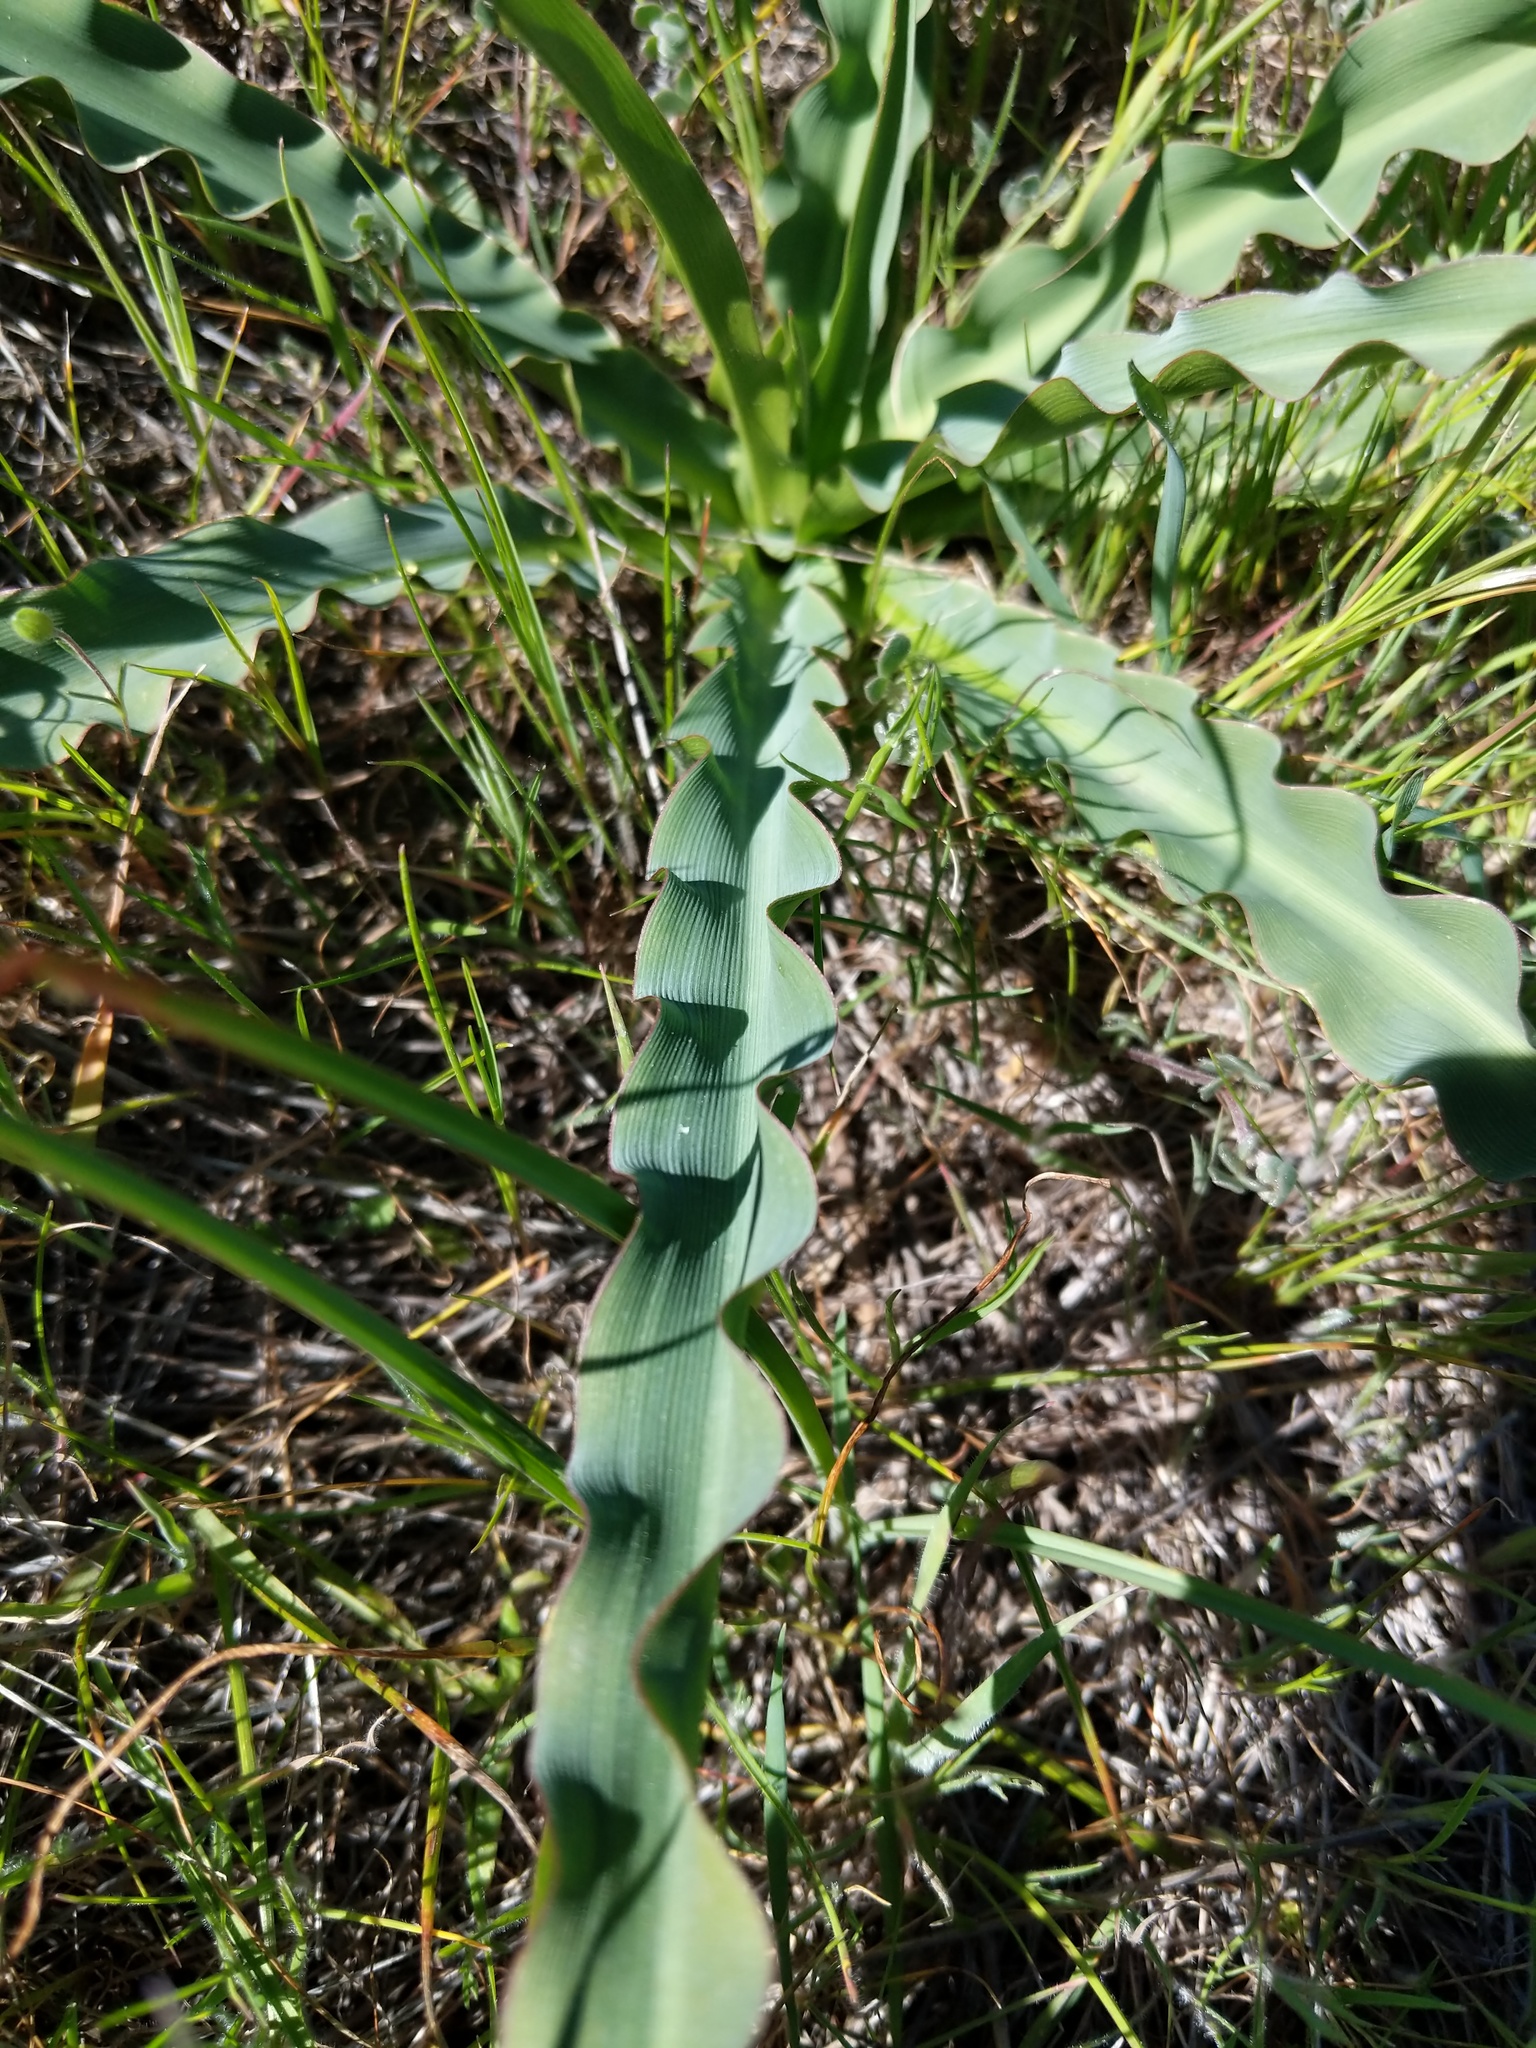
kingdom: Plantae
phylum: Tracheophyta
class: Liliopsida
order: Asparagales
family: Asparagaceae
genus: Chlorogalum
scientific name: Chlorogalum pomeridianum
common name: Amole
